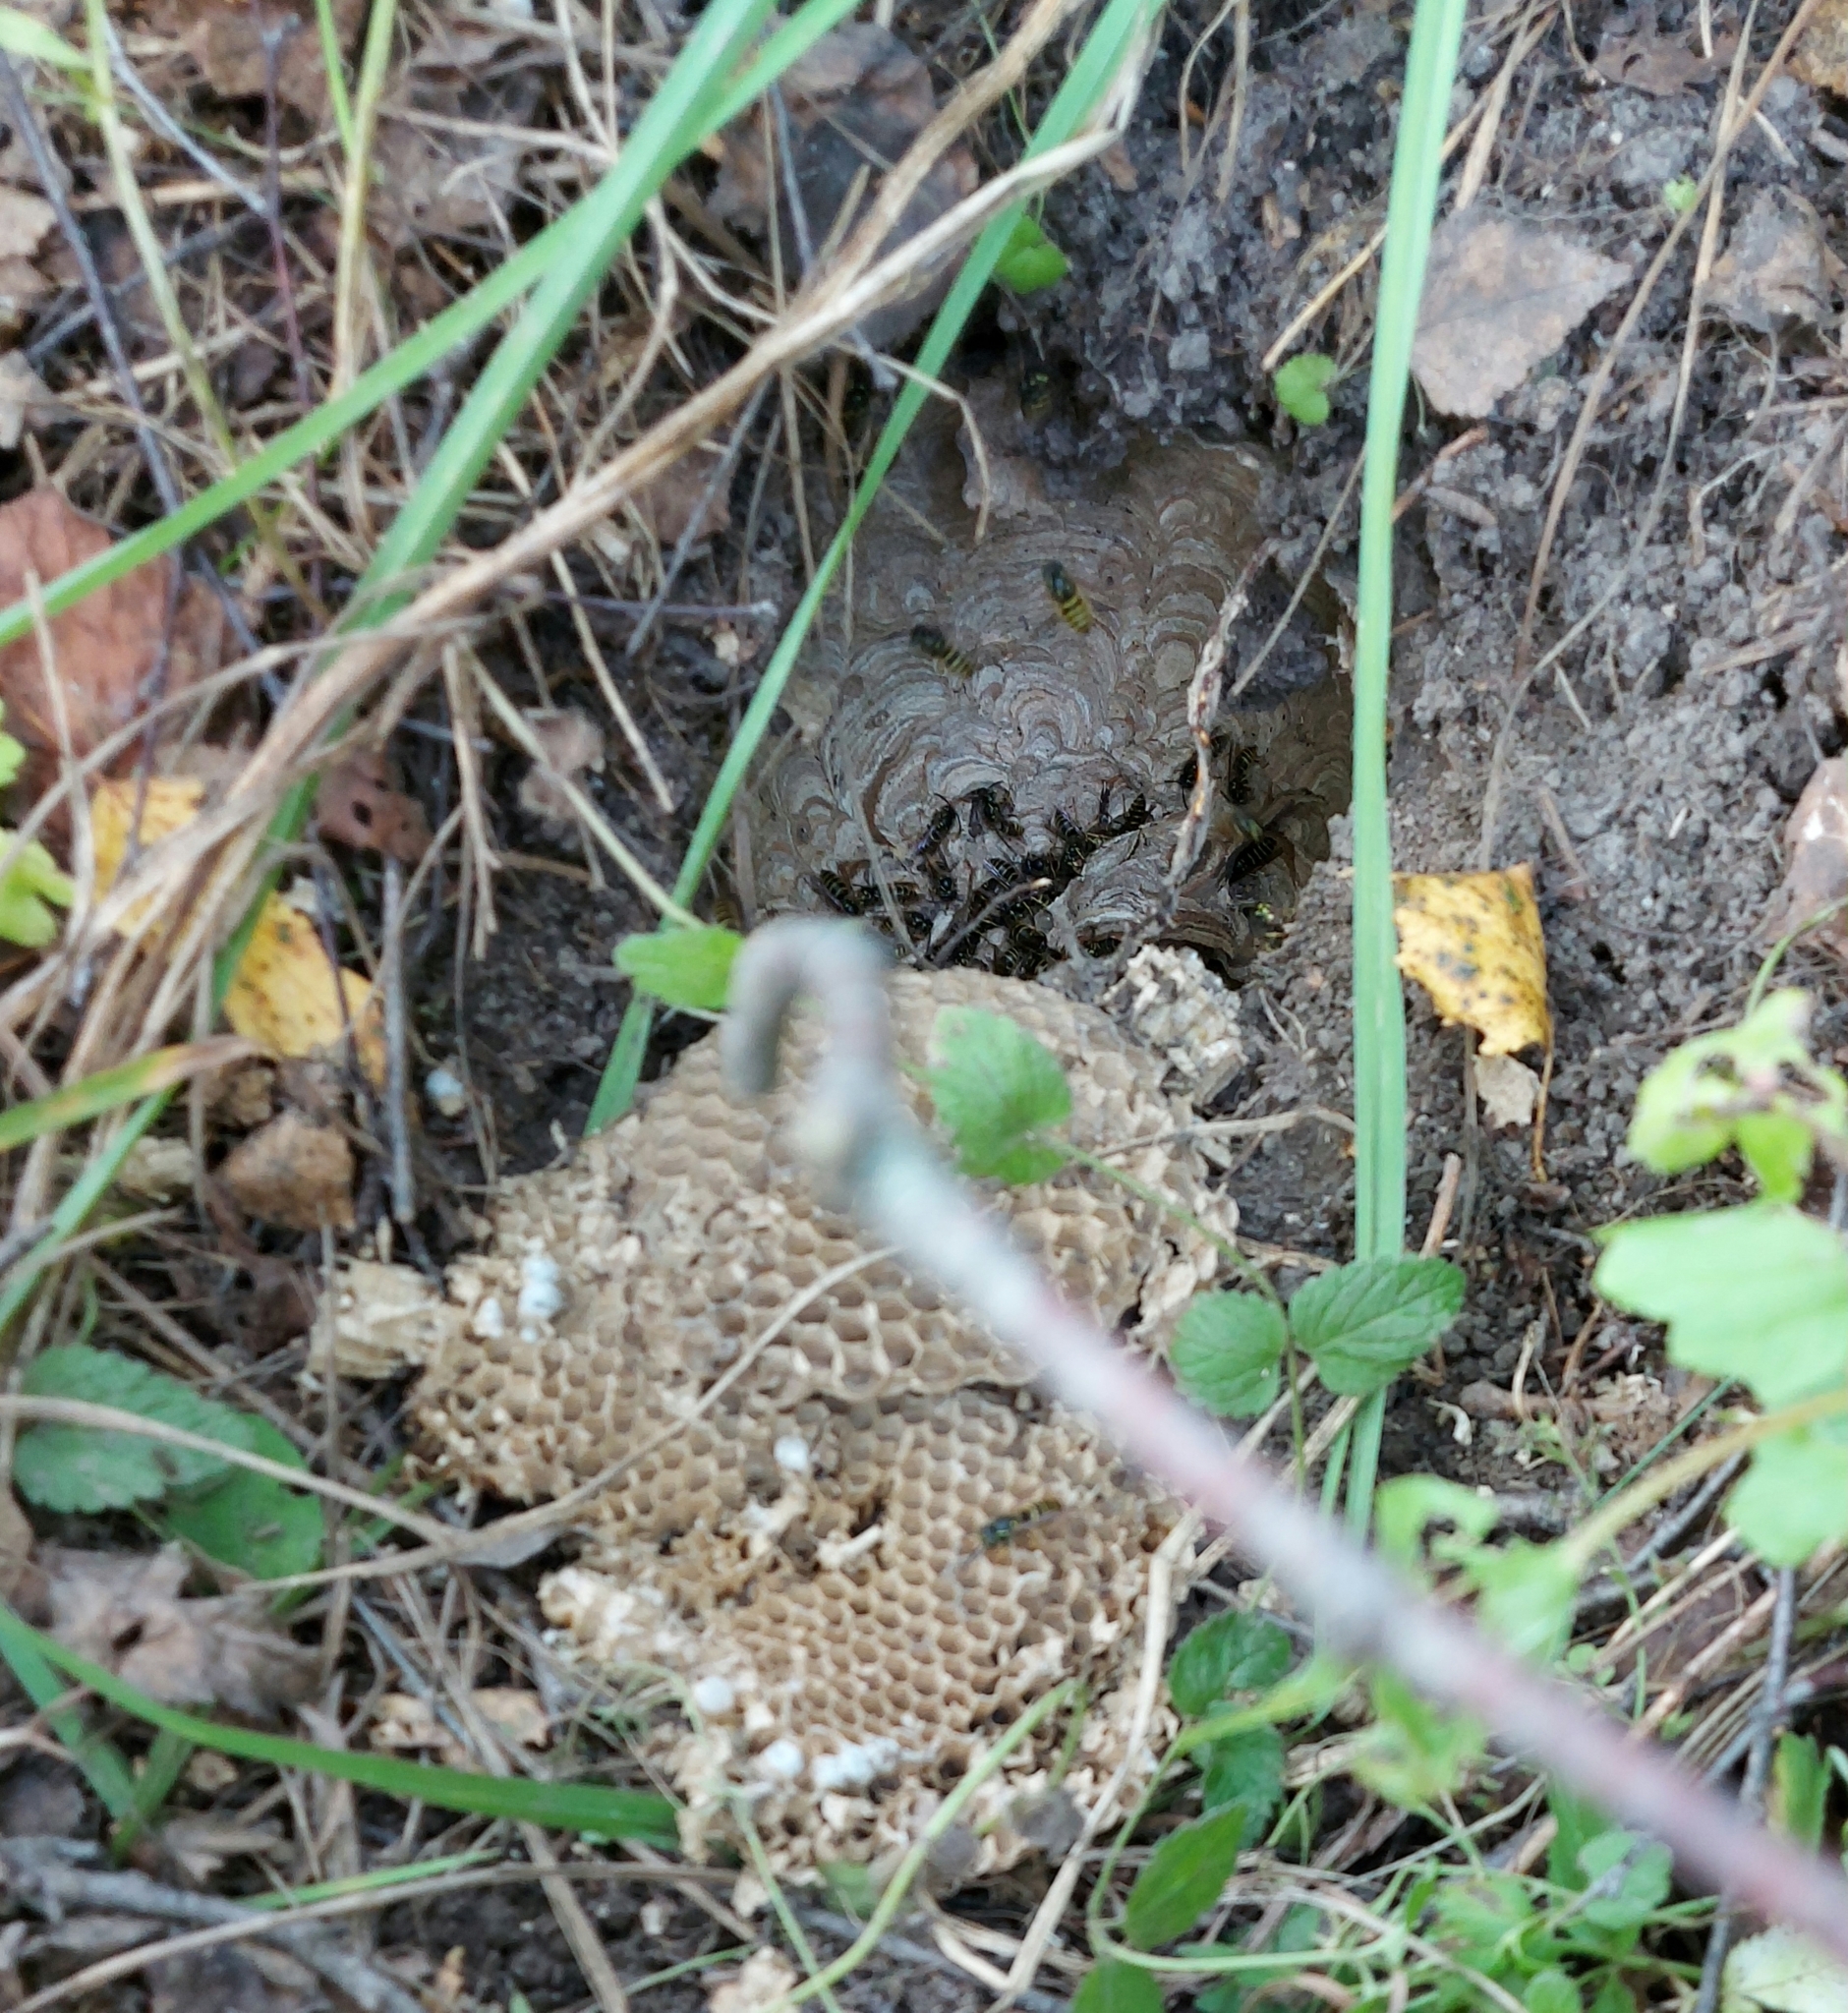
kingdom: Animalia
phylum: Arthropoda
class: Insecta
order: Hymenoptera
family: Vespidae
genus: Vespula
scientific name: Vespula vulgaris
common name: Common wasp
